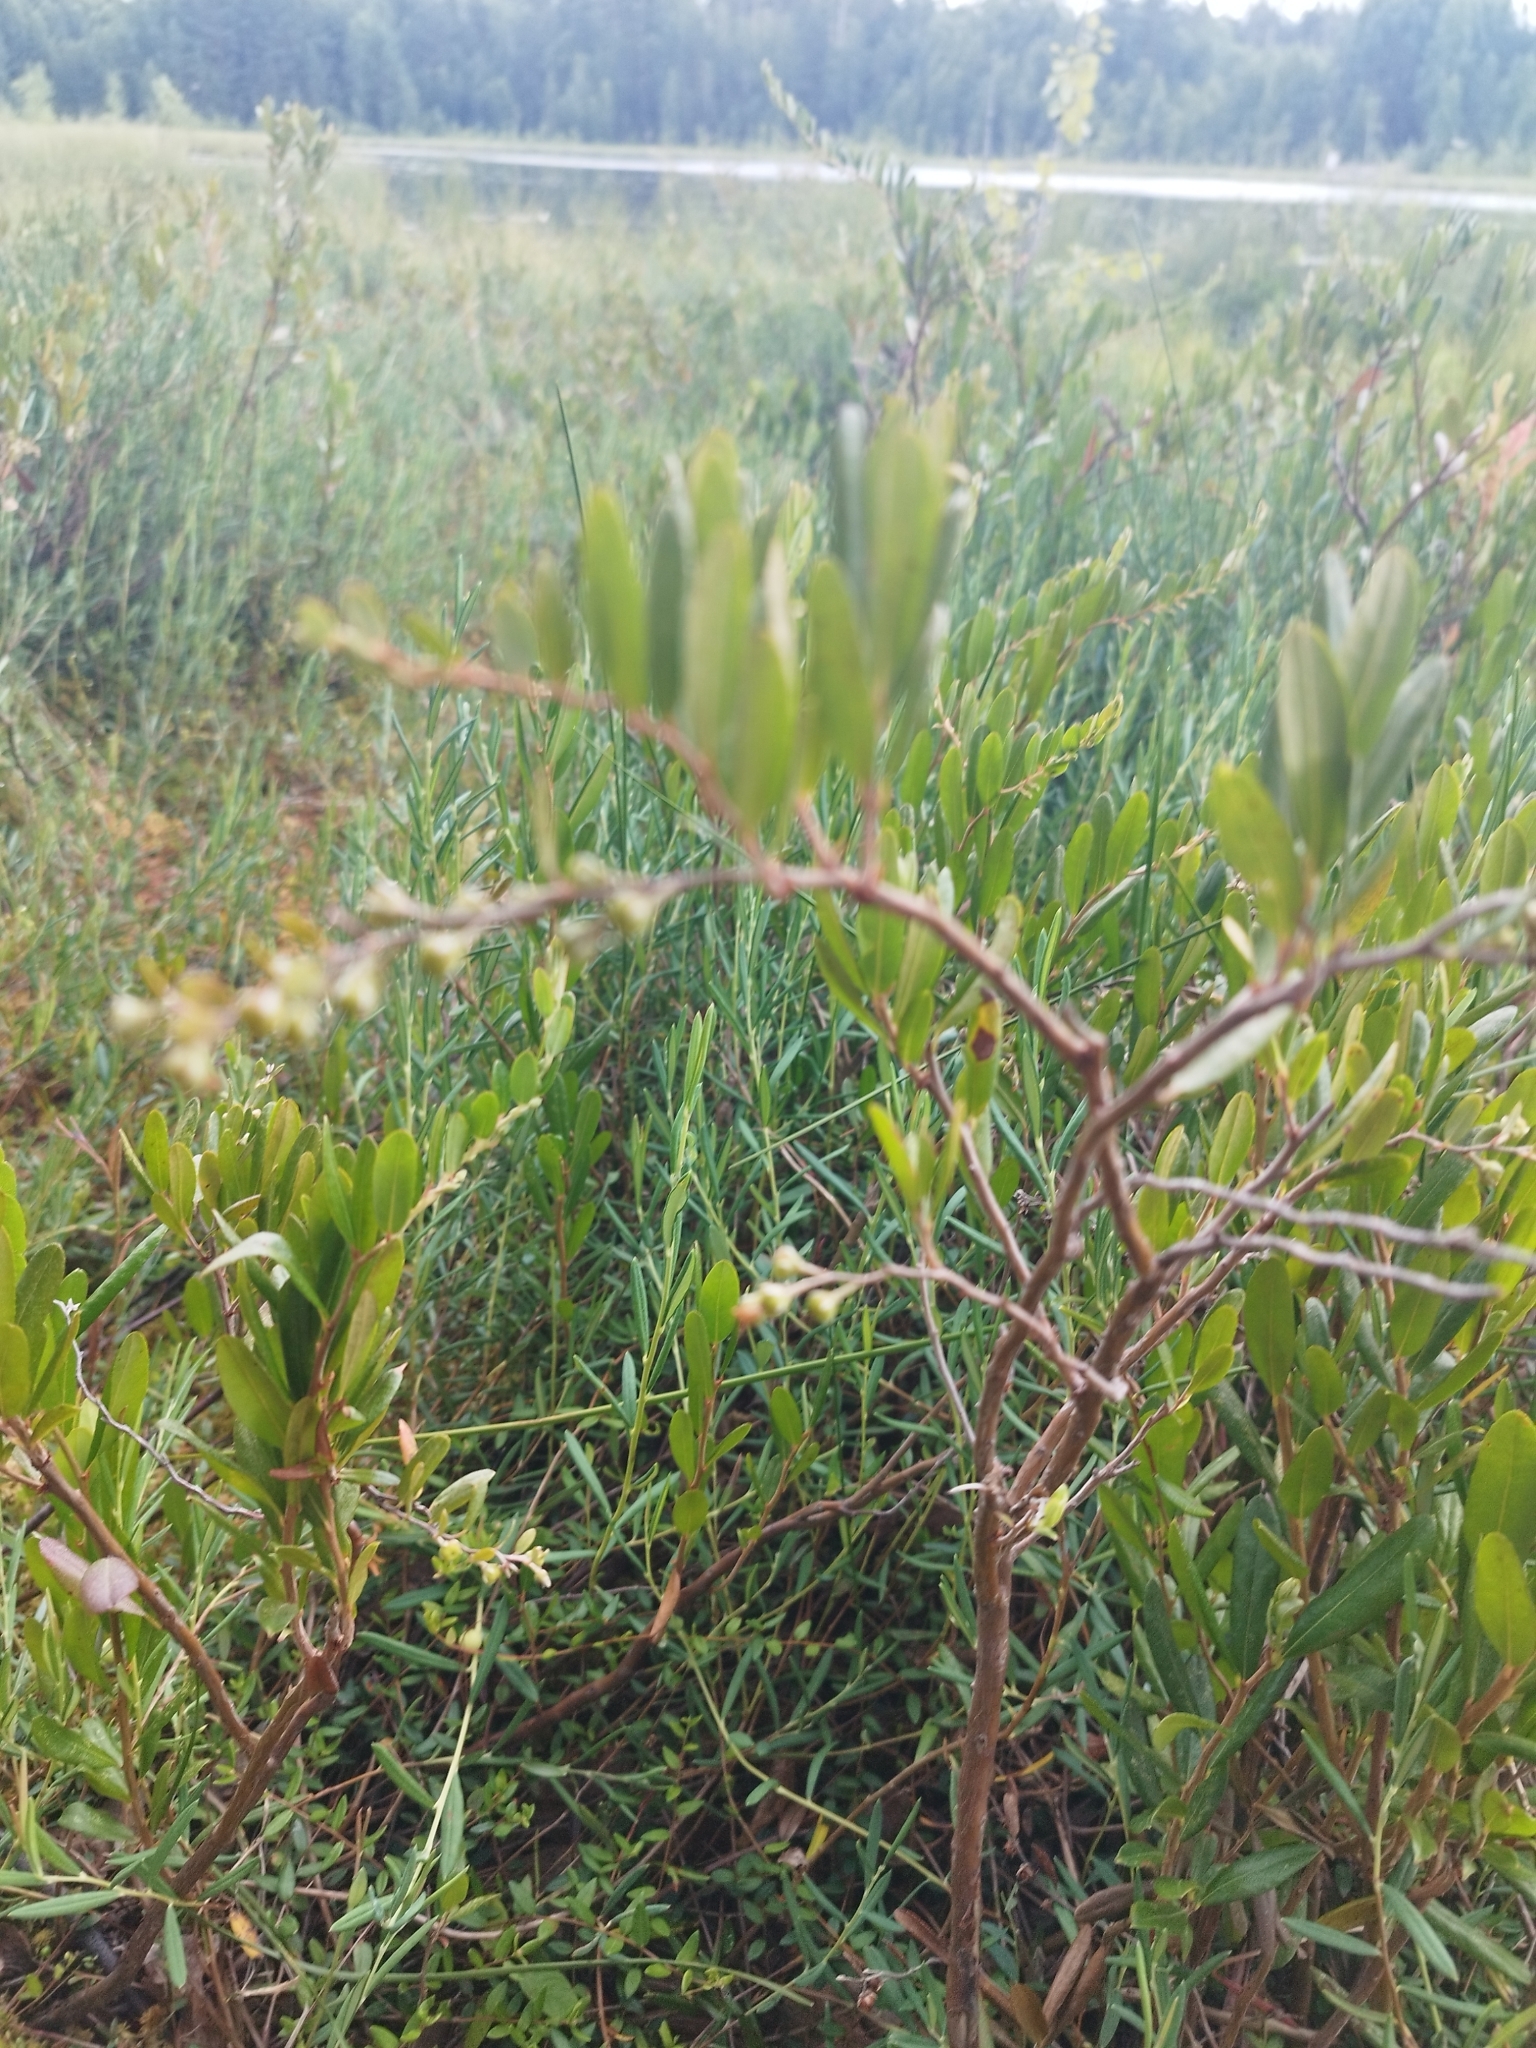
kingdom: Plantae
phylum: Tracheophyta
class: Magnoliopsida
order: Ericales
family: Ericaceae
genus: Chamaedaphne
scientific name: Chamaedaphne calyculata
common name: Leatherleaf
